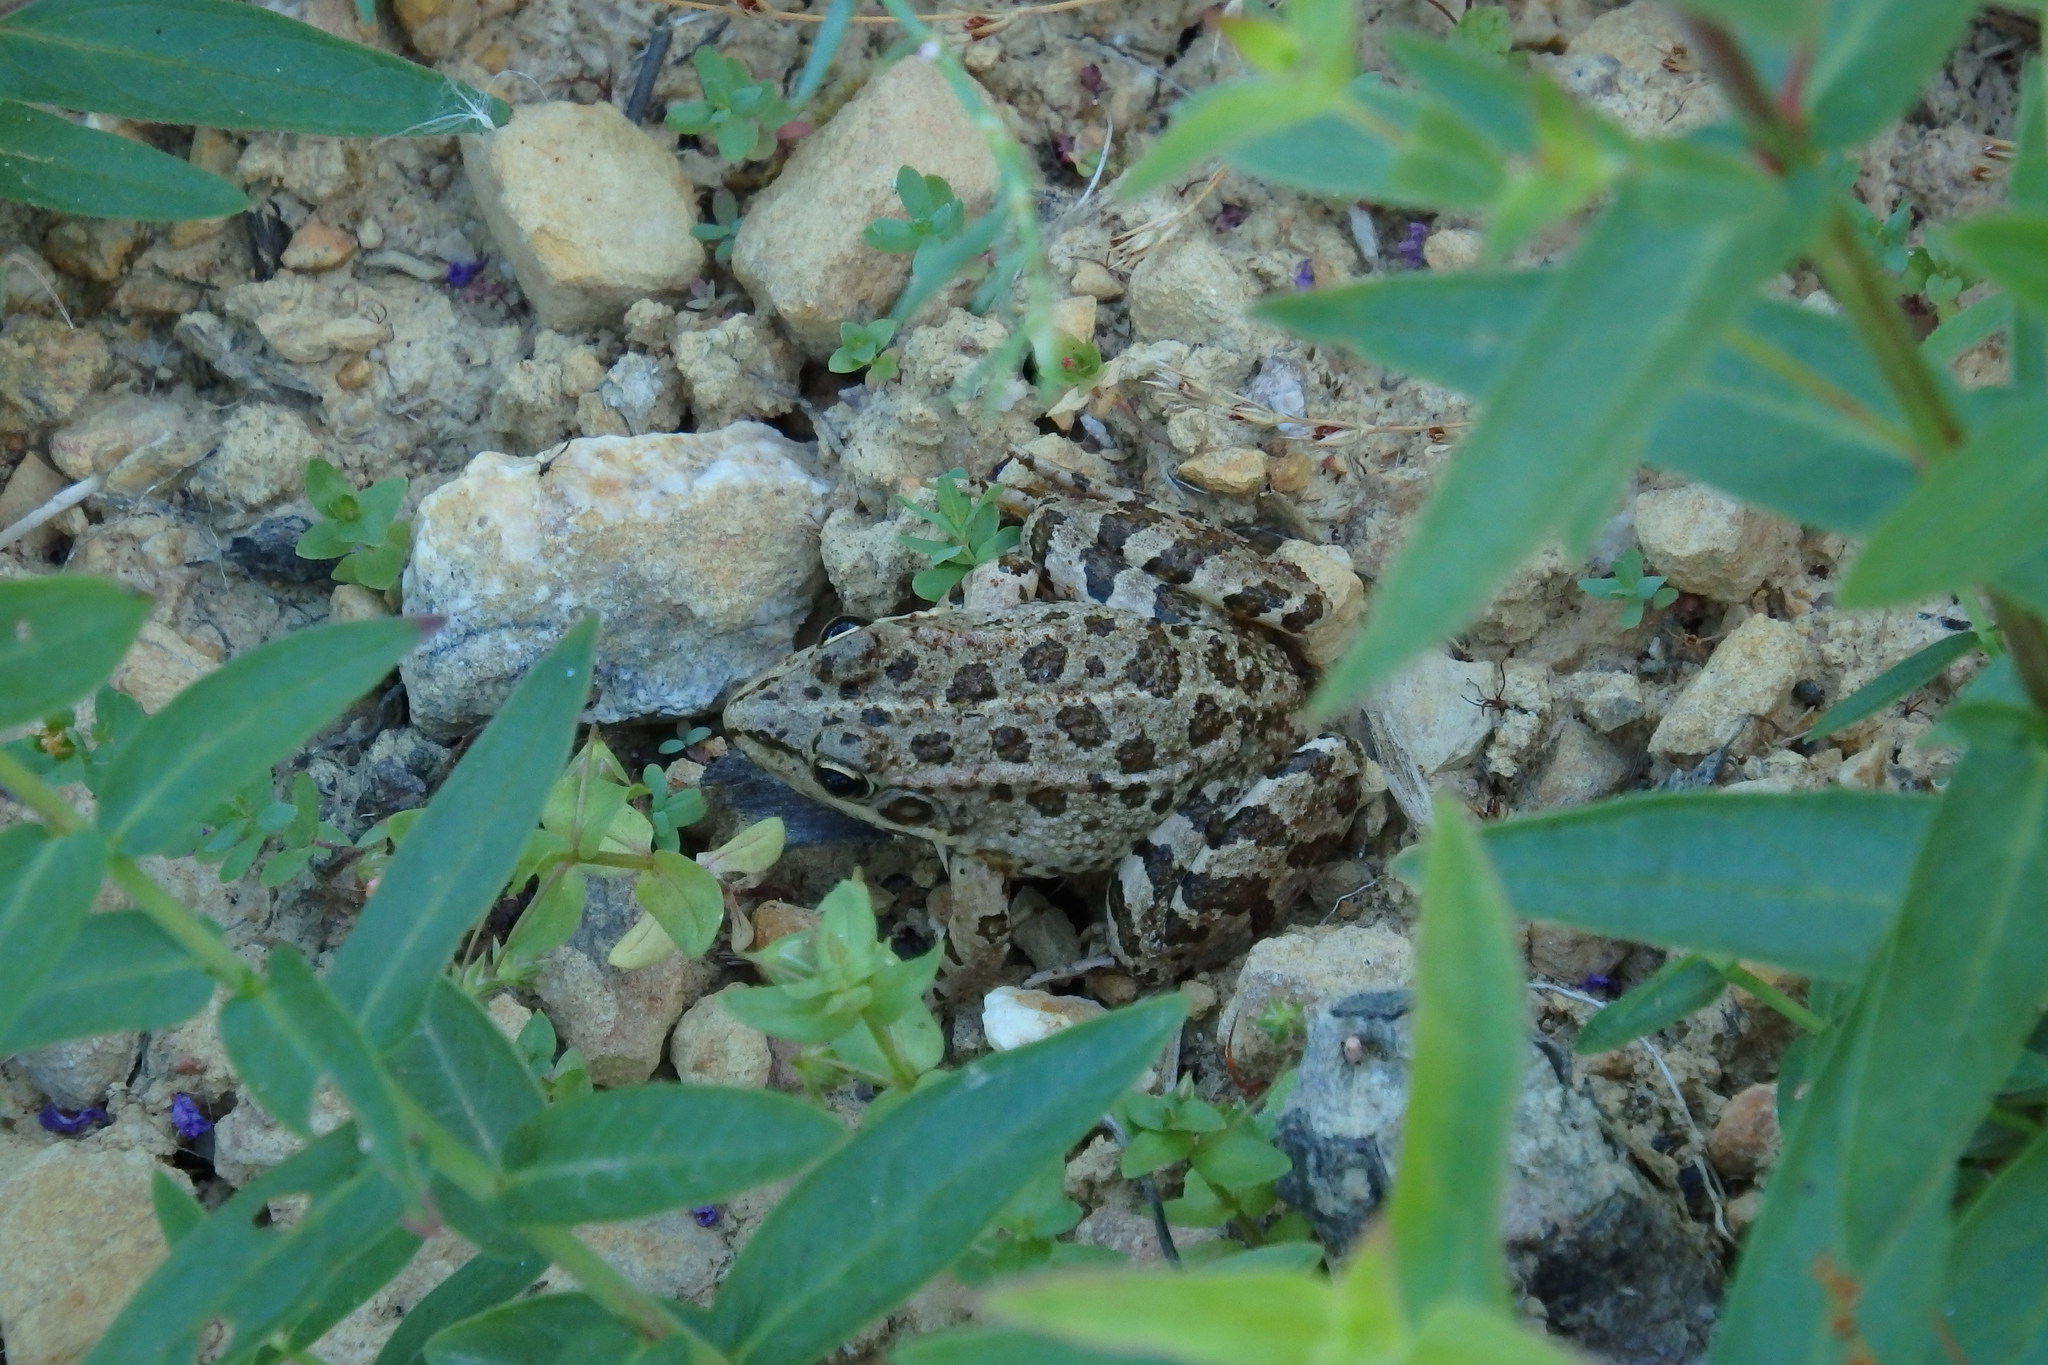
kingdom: Animalia
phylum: Chordata
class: Amphibia
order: Anura
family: Ranidae
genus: Pelophylax
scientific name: Pelophylax perezi
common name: Perez's frog
